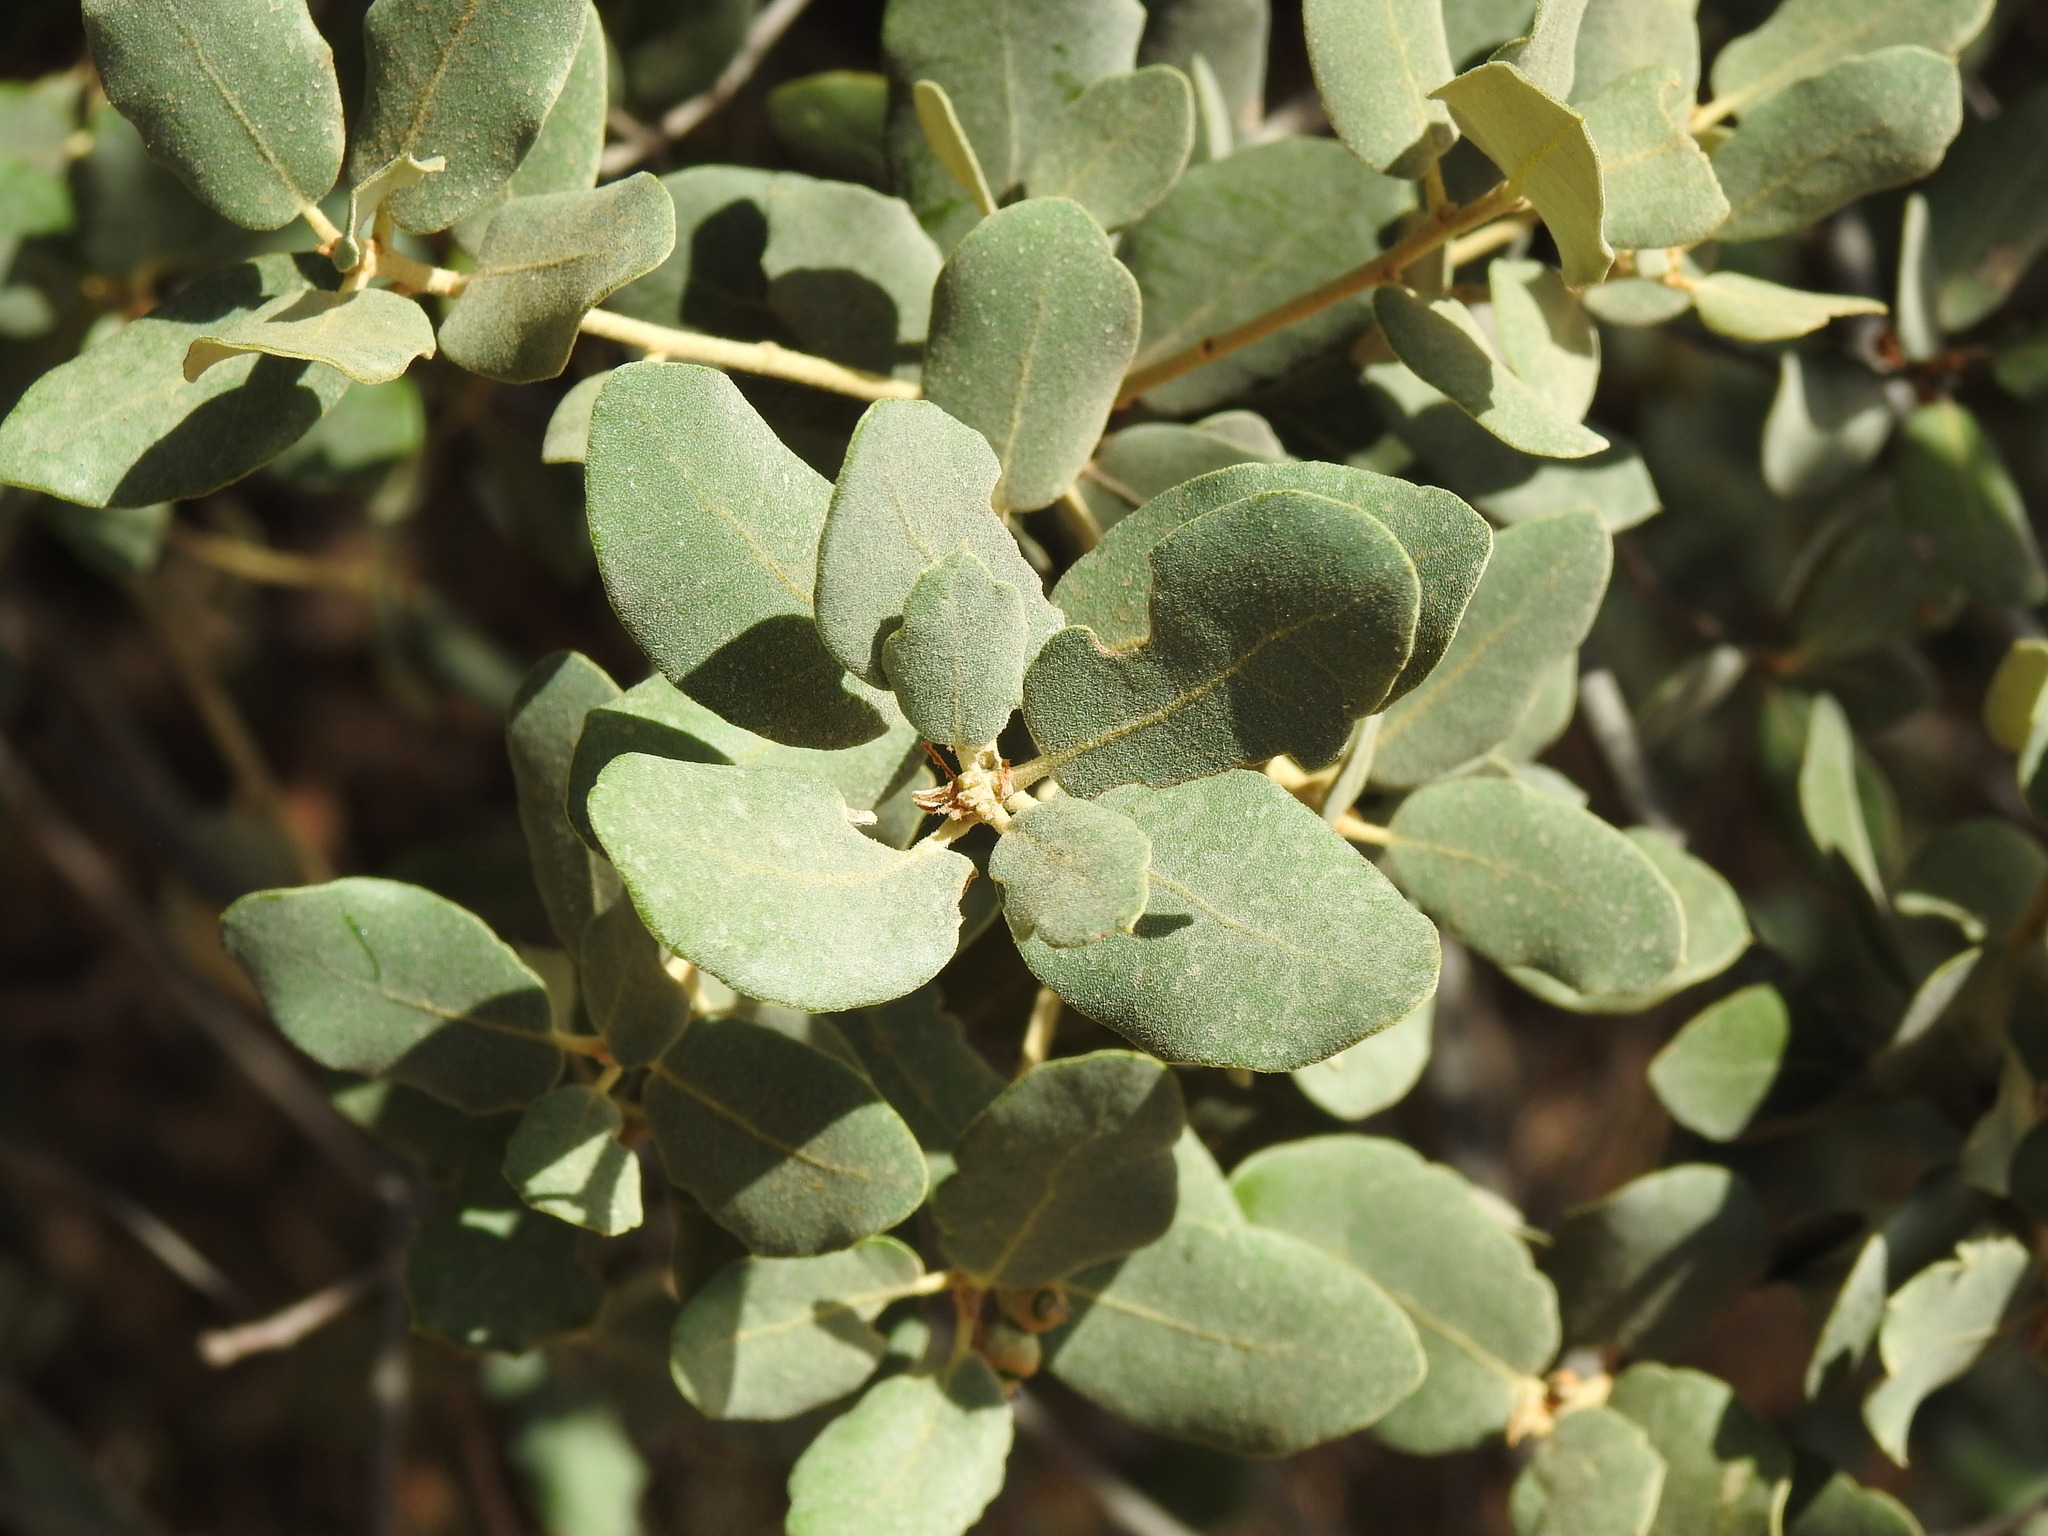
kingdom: Plantae
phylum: Tracheophyta
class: Magnoliopsida
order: Fagales
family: Fagaceae
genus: Quercus
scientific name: Quercus rotundifolia
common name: Holm oak
